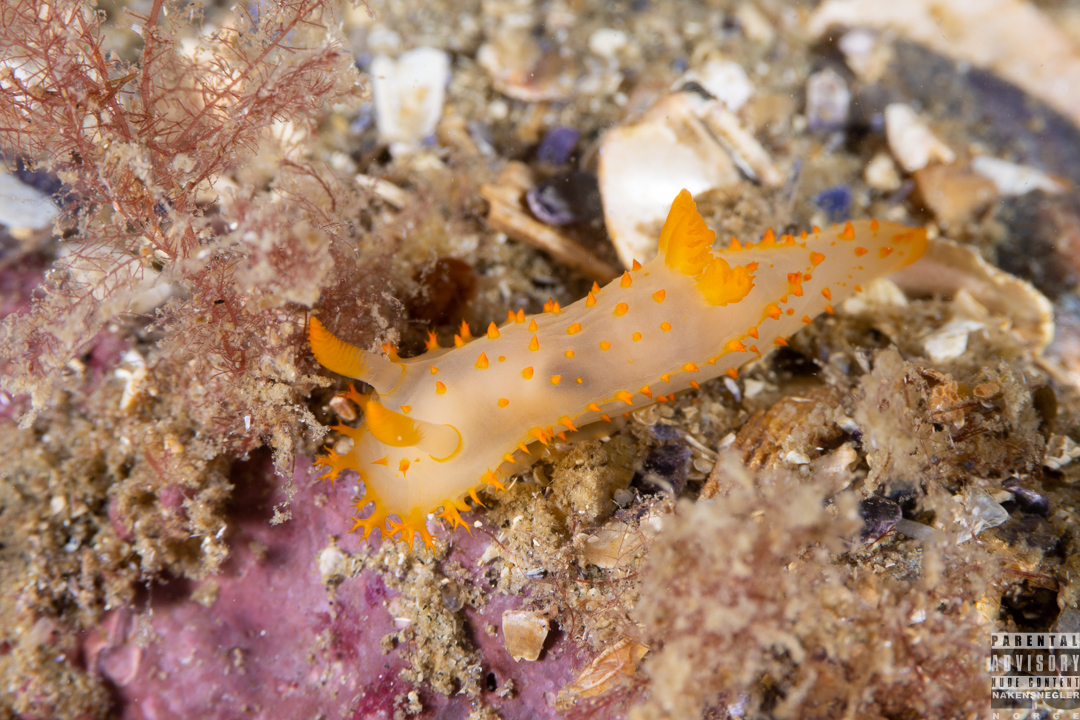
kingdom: Animalia
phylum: Mollusca
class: Gastropoda
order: Nudibranchia
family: Polyceridae
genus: Crimora
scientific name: Crimora papillata
